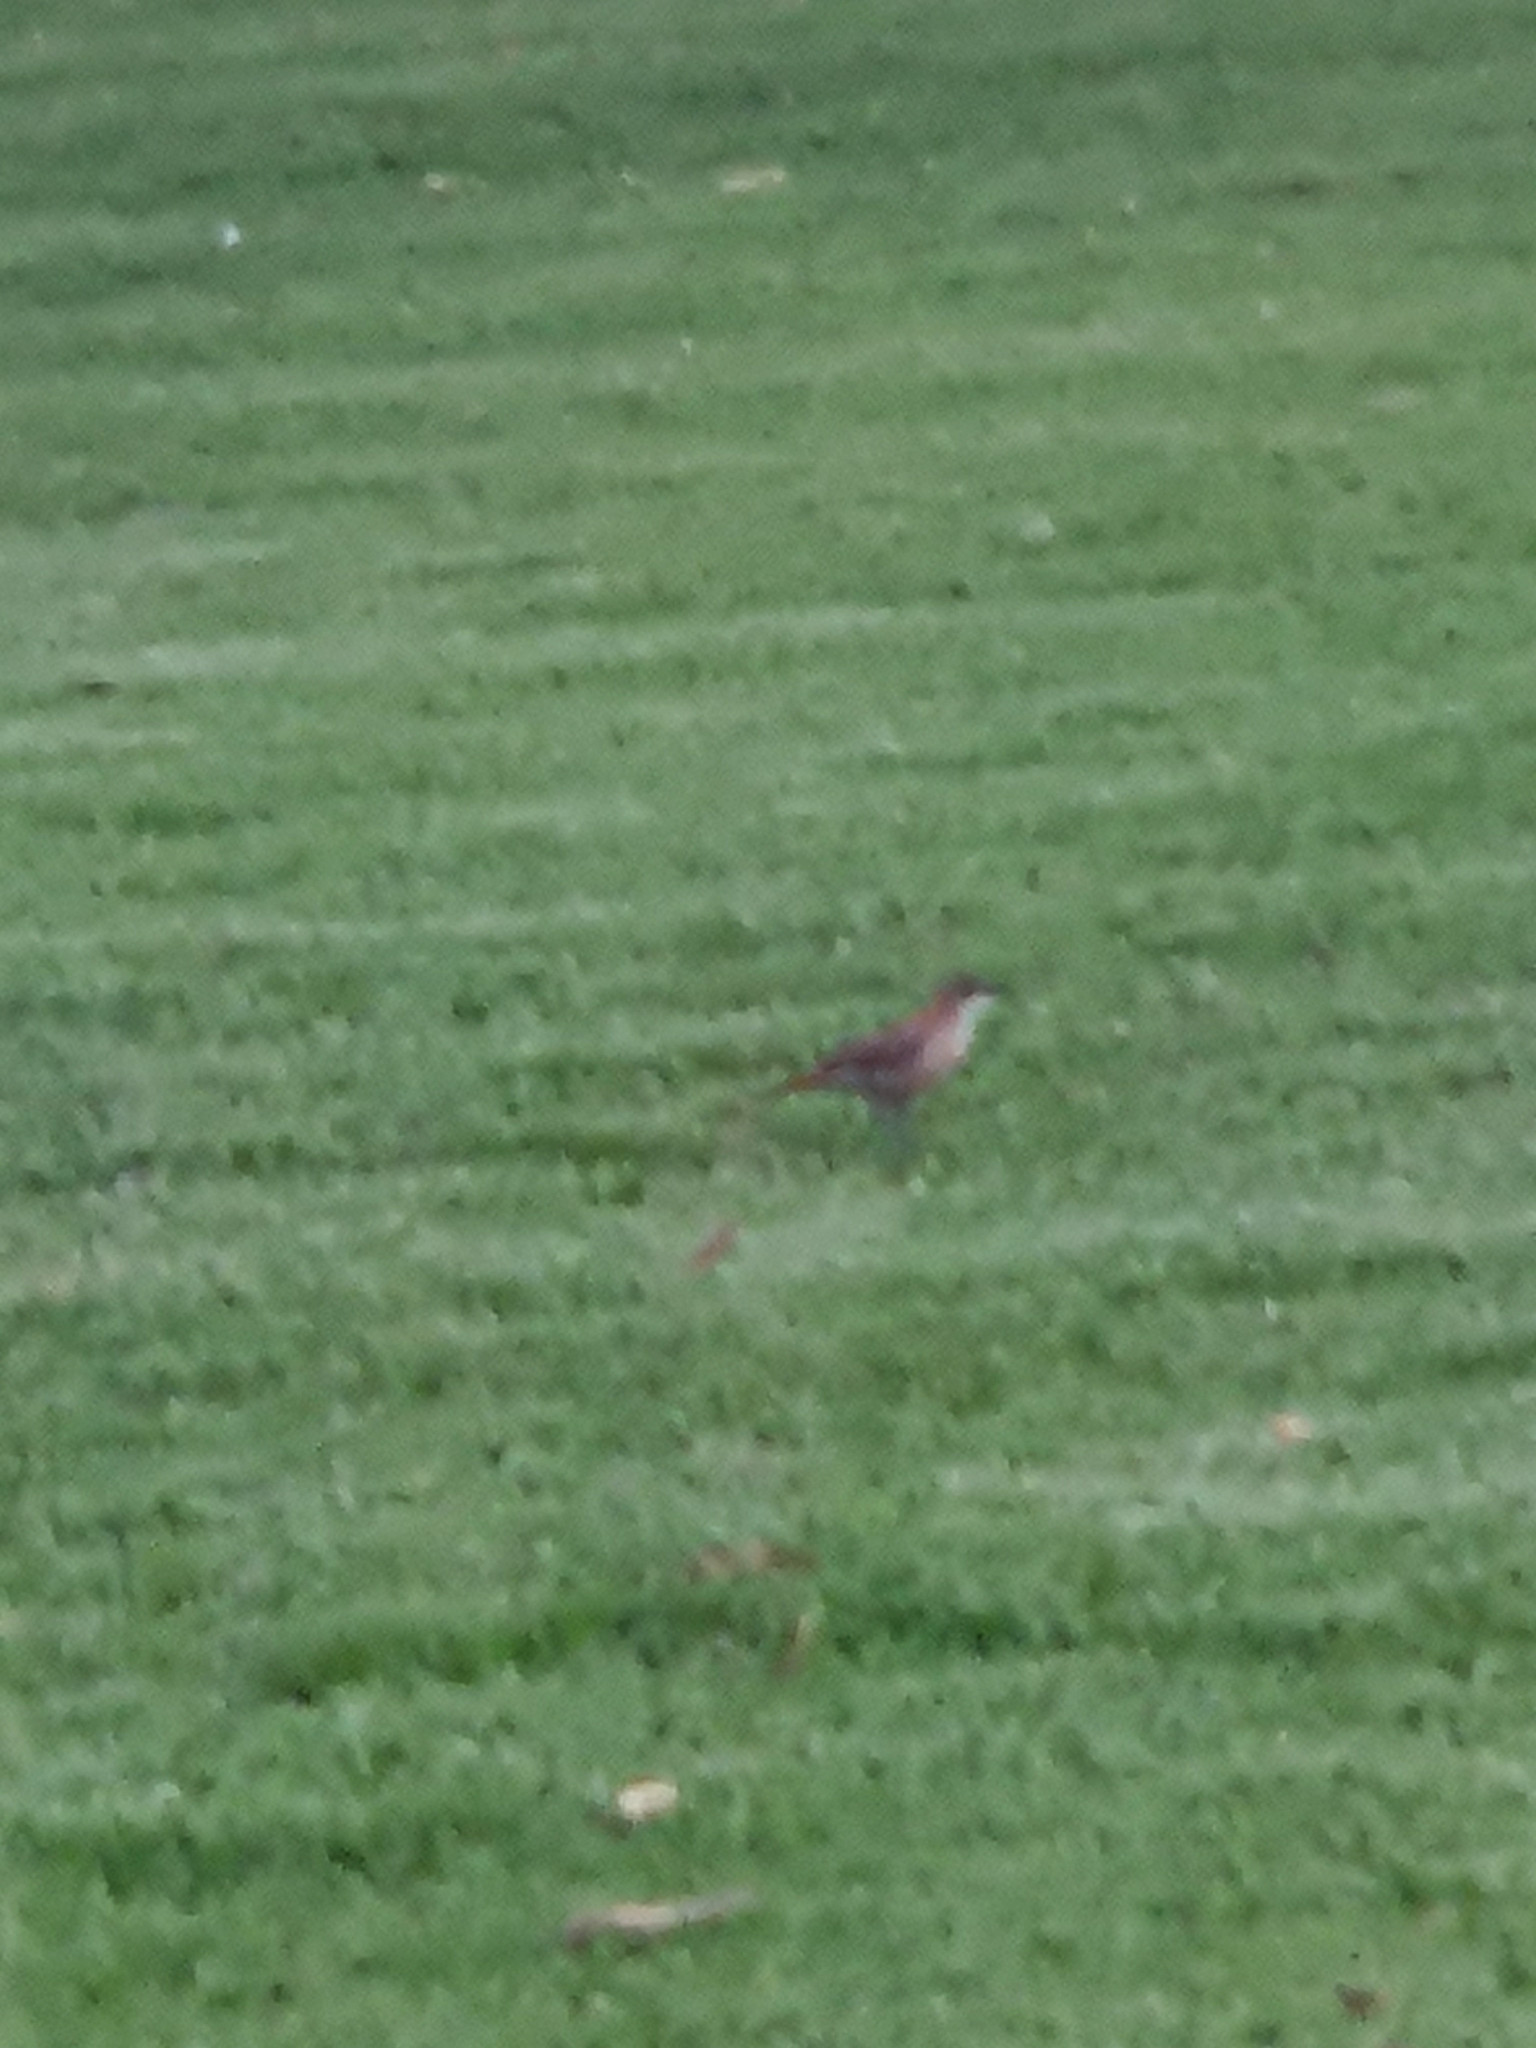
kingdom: Animalia
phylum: Chordata
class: Aves
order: Passeriformes
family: Furnariidae
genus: Furnarius
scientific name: Furnarius rufus
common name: Rufous hornero
